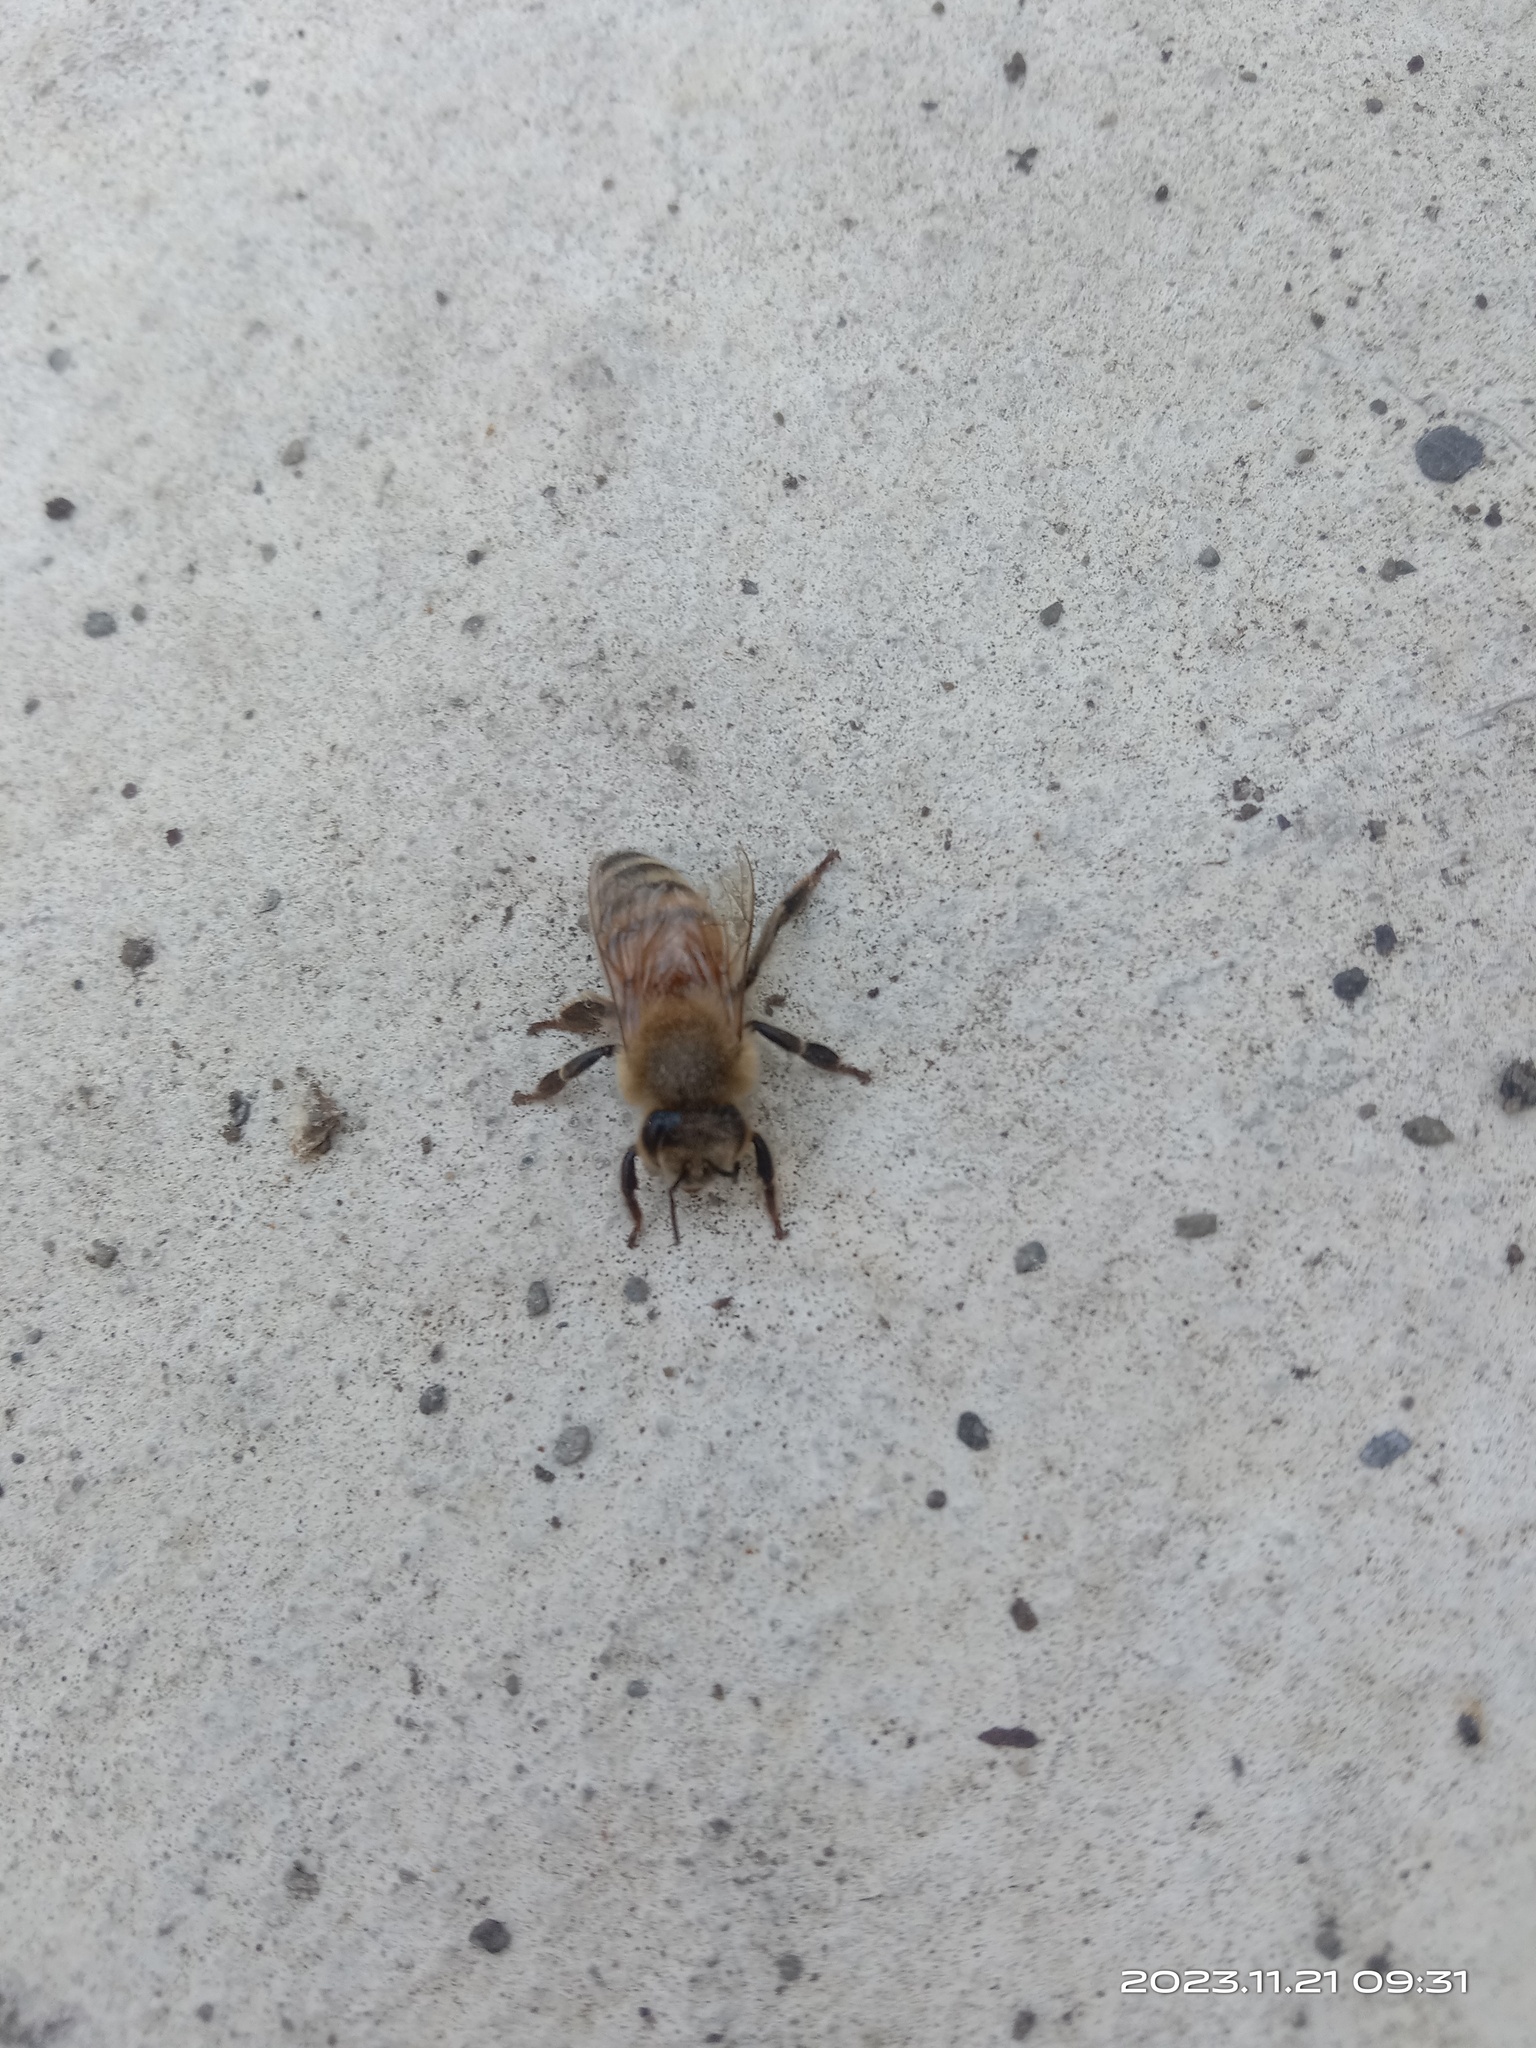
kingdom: Animalia
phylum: Arthropoda
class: Insecta
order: Hymenoptera
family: Apidae
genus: Apis
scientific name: Apis mellifera
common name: Honey bee
